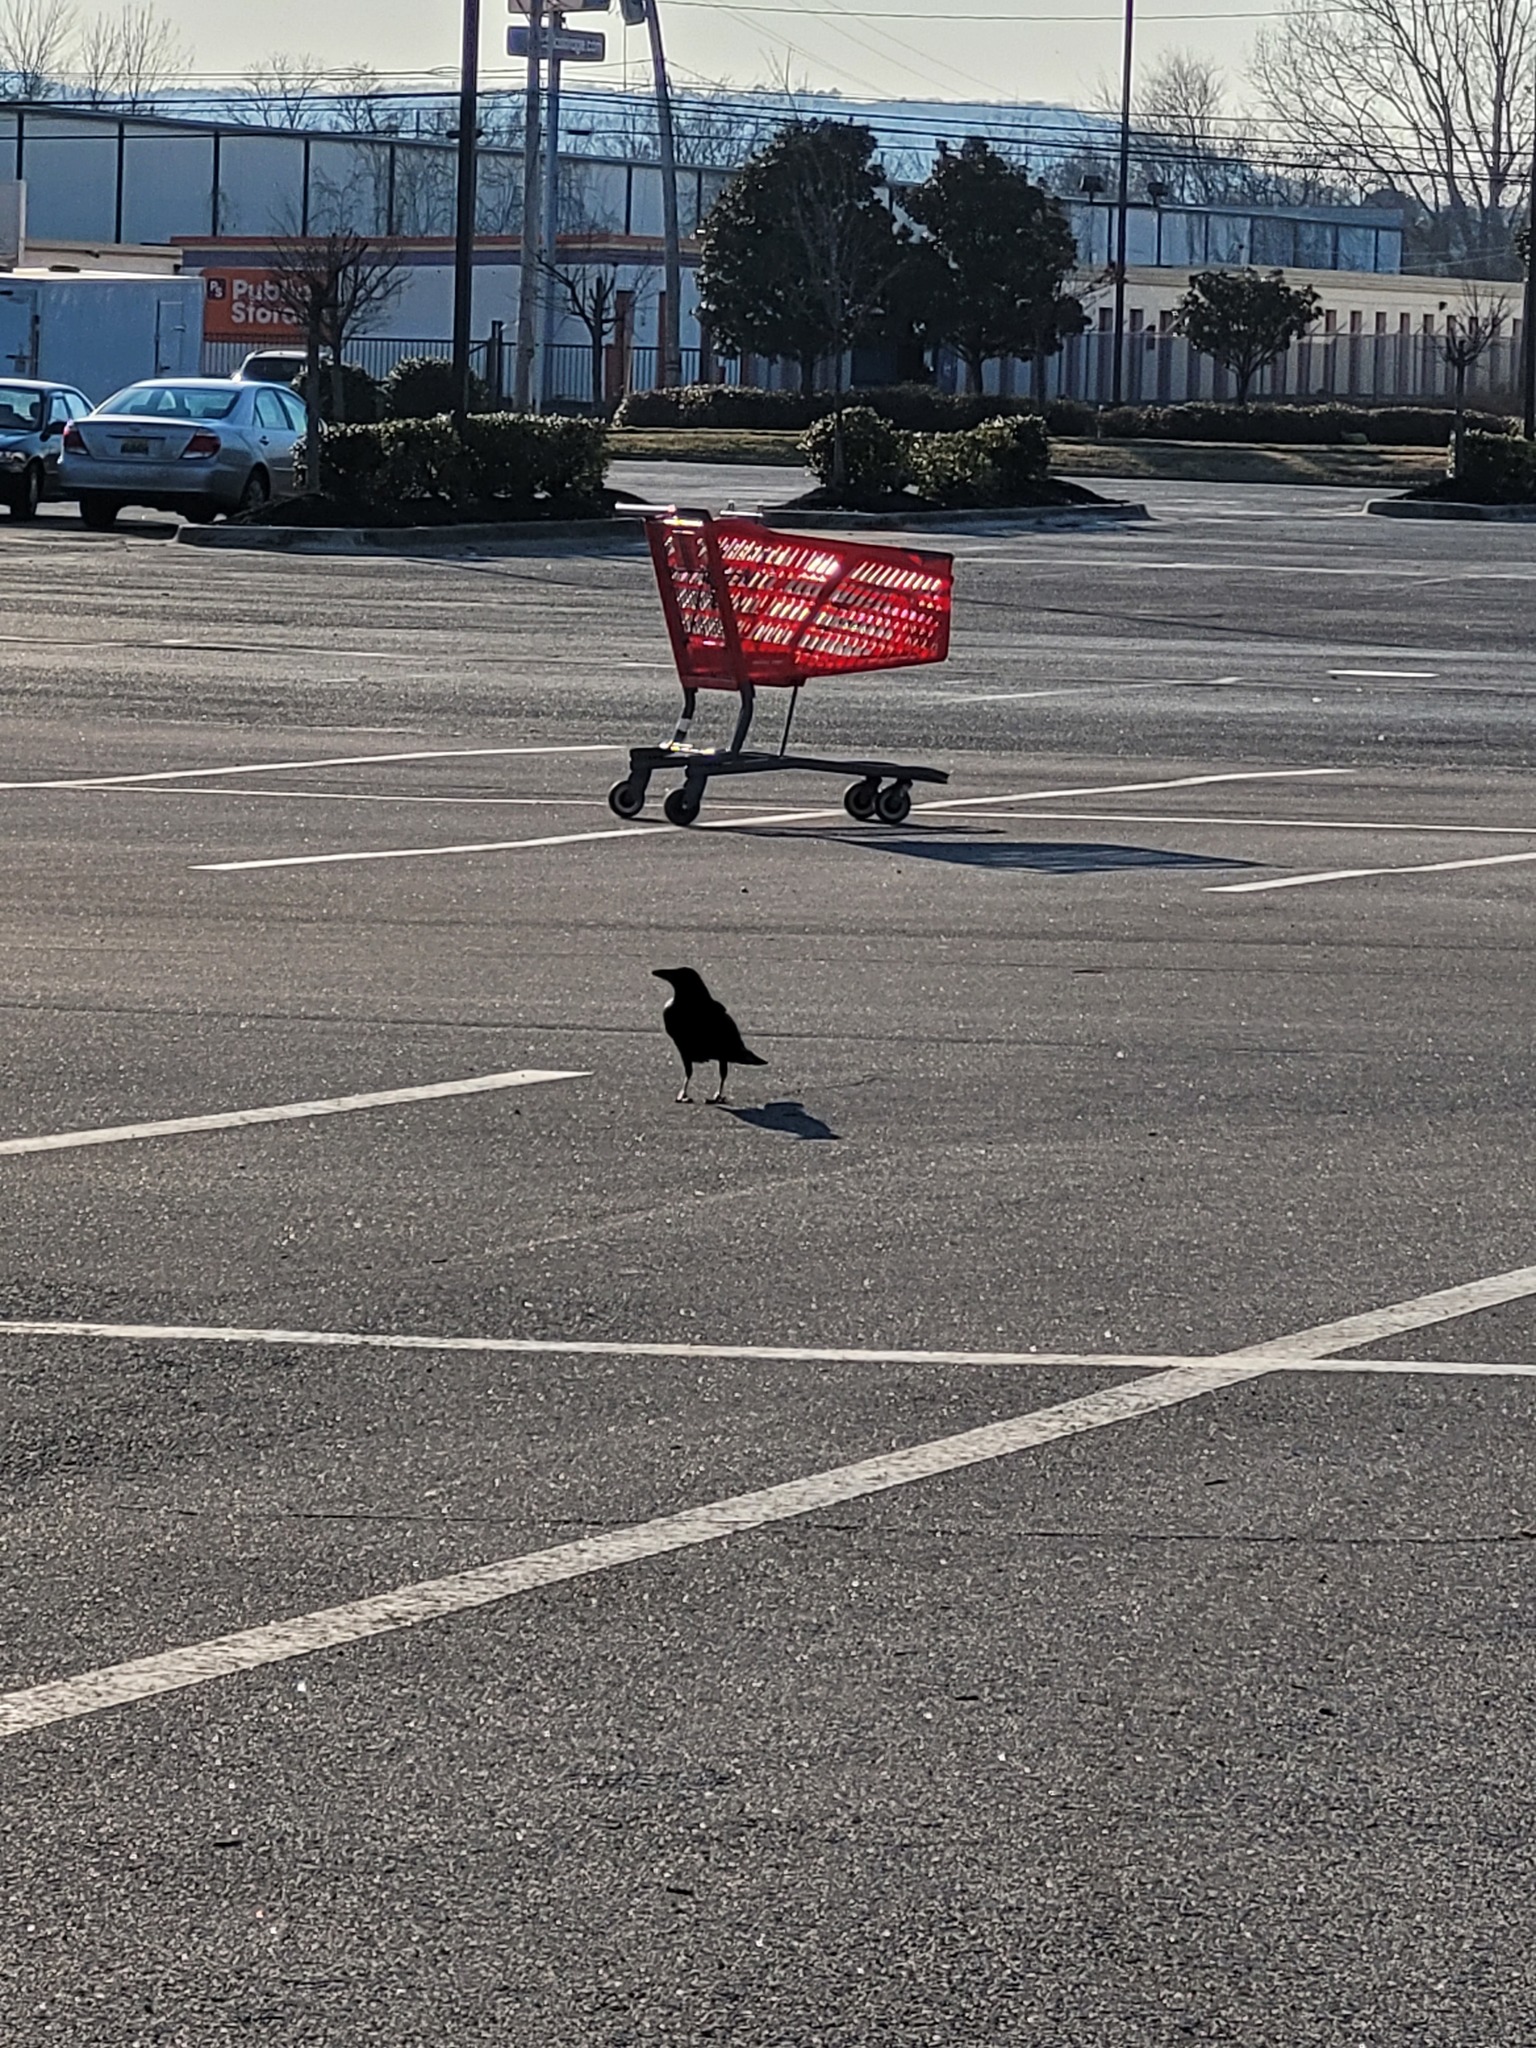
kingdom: Animalia
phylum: Chordata
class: Aves
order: Passeriformes
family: Corvidae
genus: Corvus
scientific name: Corvus brachyrhynchos
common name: American crow
